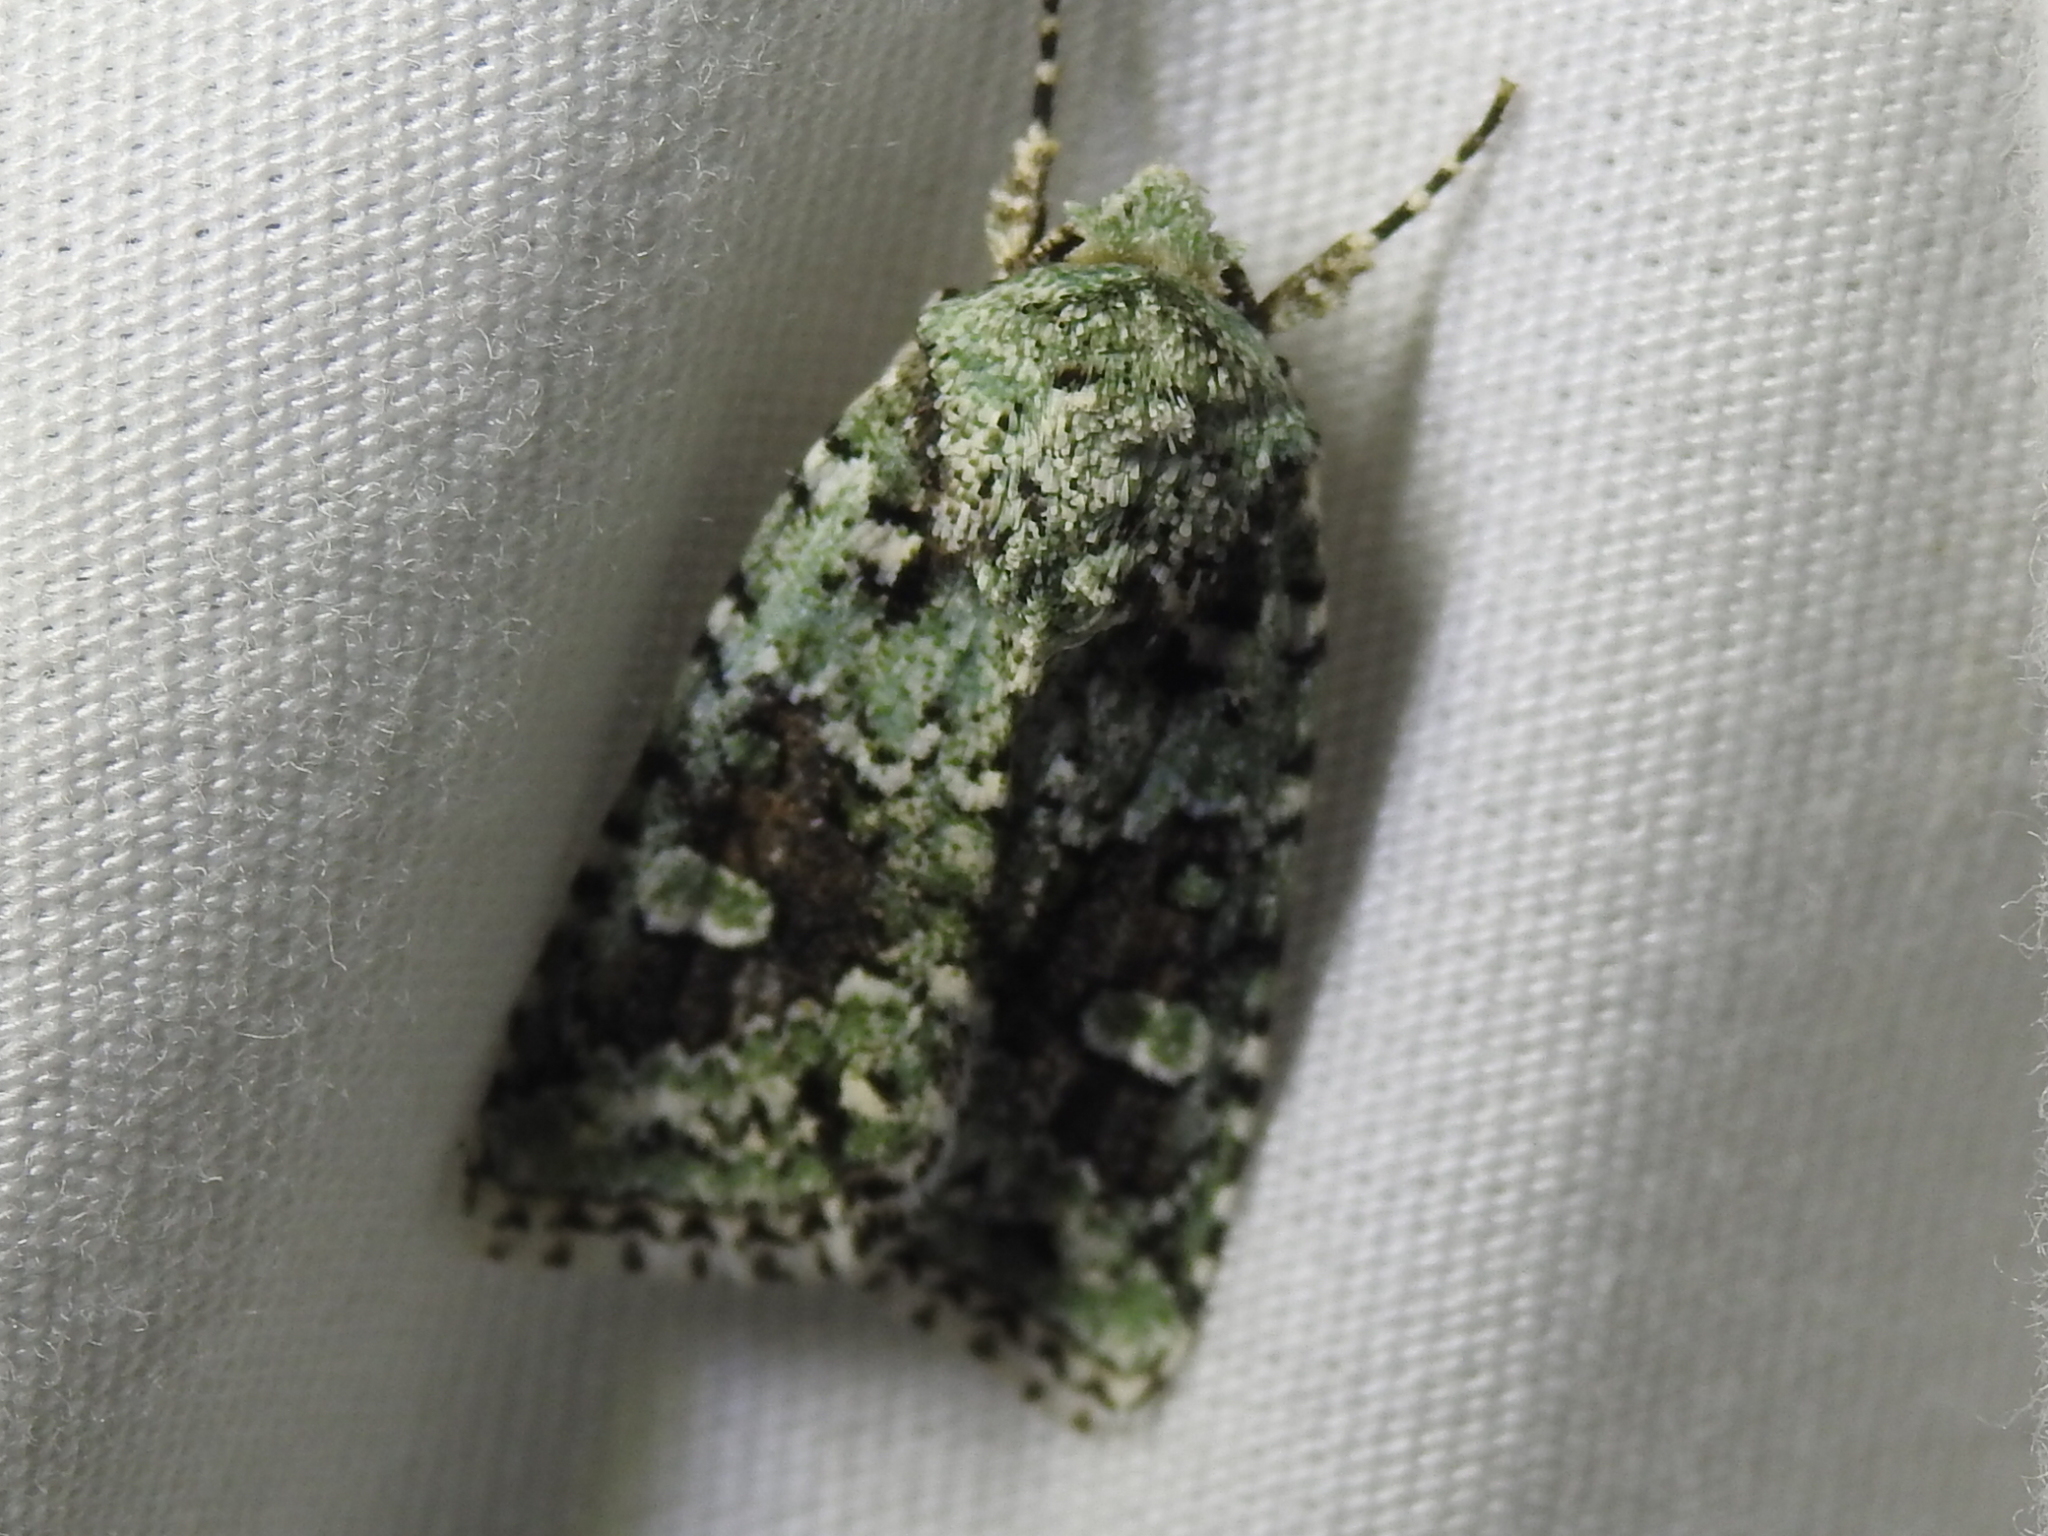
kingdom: Animalia
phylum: Arthropoda
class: Insecta
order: Lepidoptera
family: Noctuidae
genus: Lacinipolia
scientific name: Lacinipolia laudabilis
